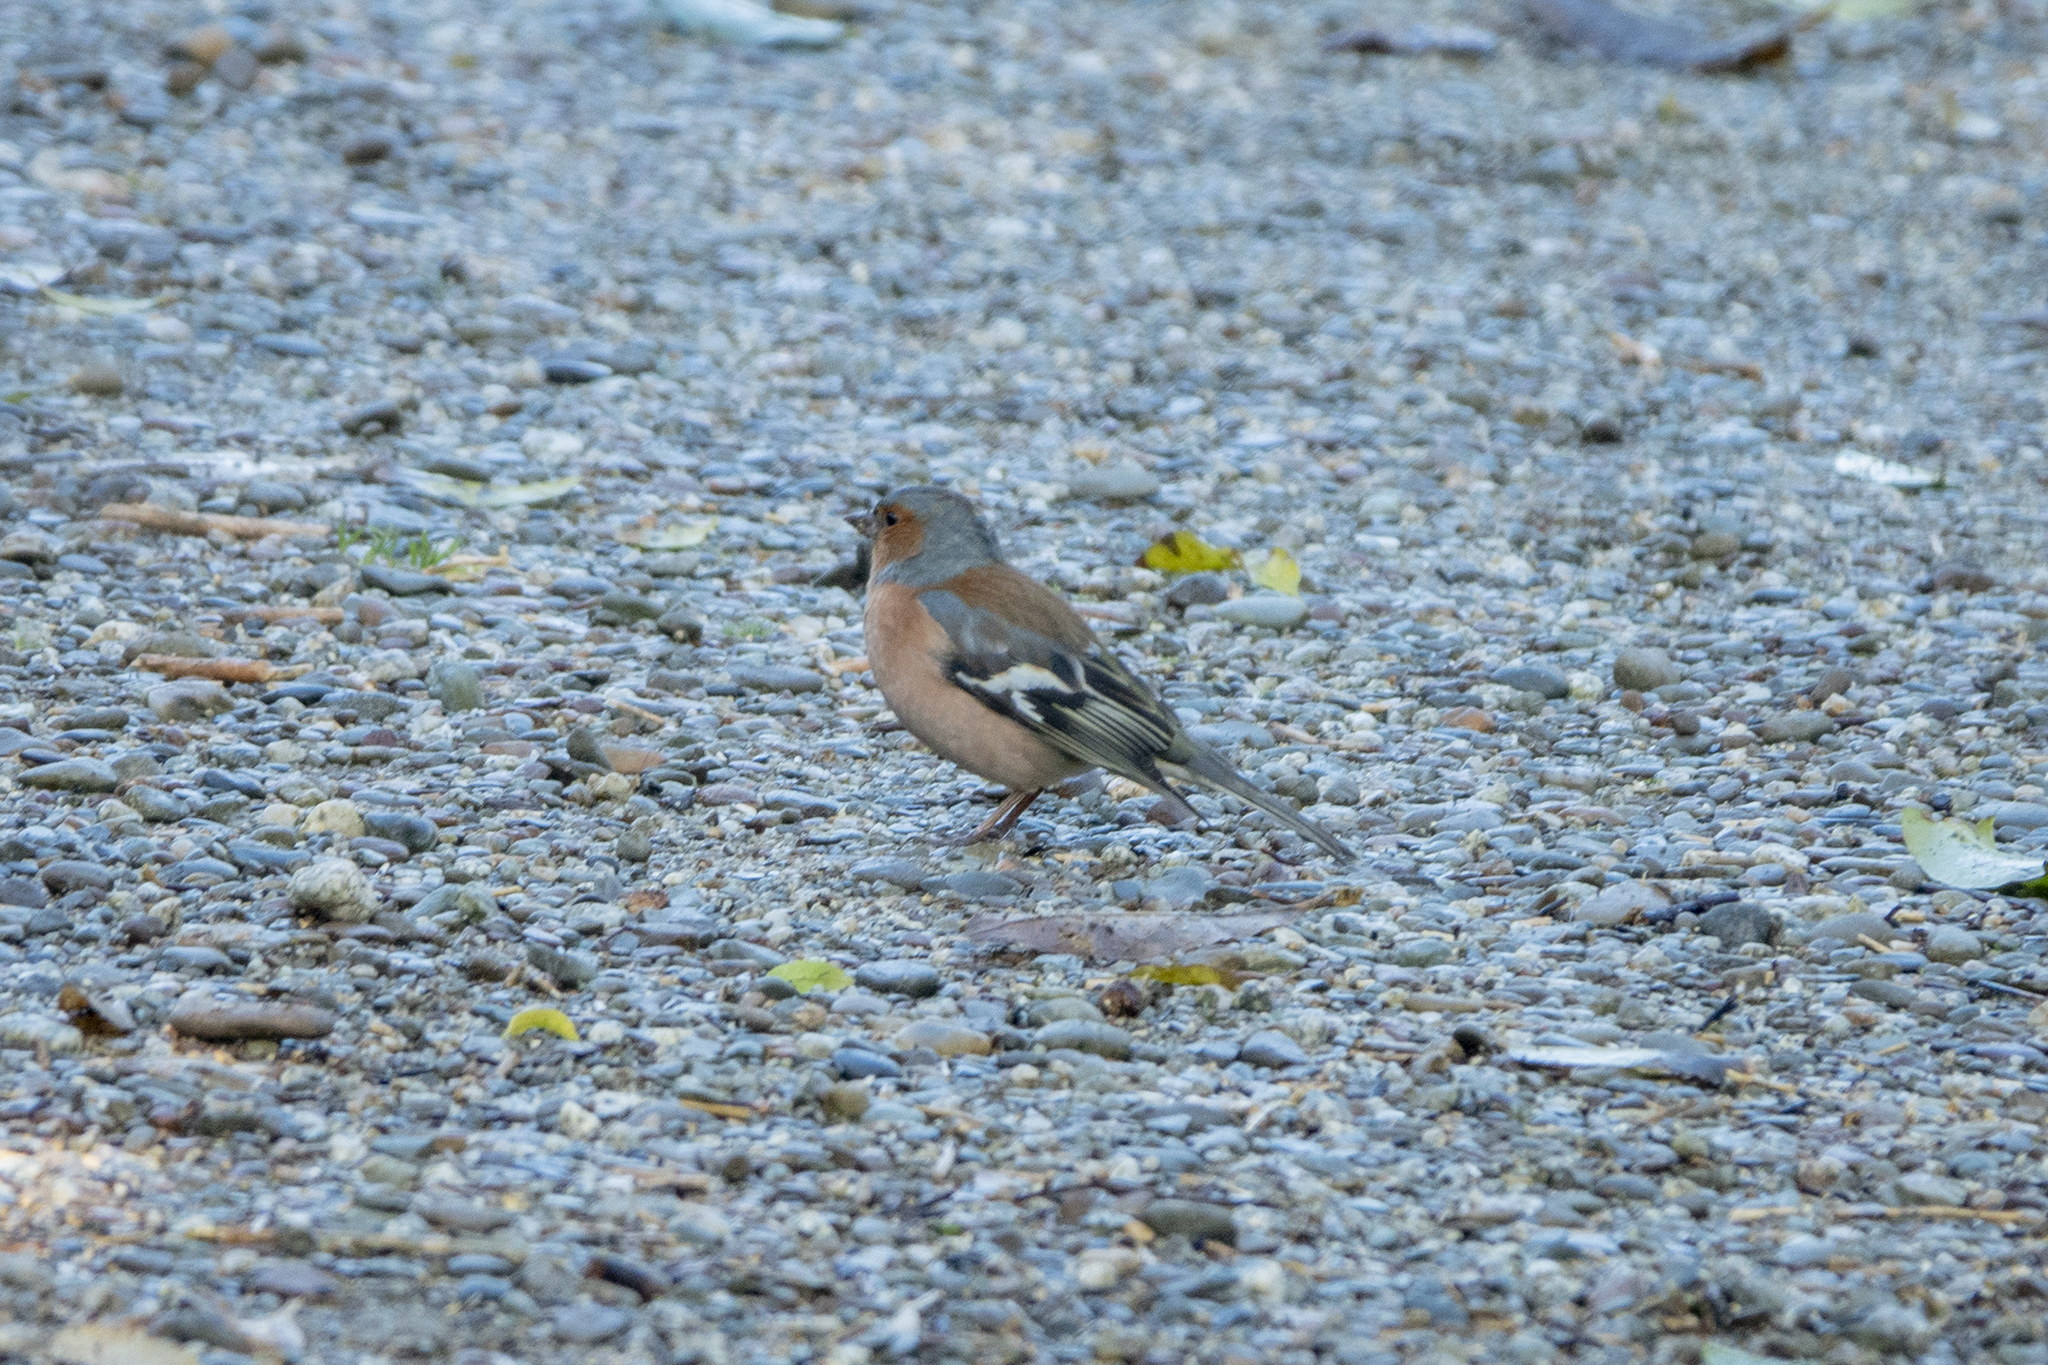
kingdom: Animalia
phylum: Chordata
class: Aves
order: Passeriformes
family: Fringillidae
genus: Fringilla
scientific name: Fringilla coelebs
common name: Common chaffinch
